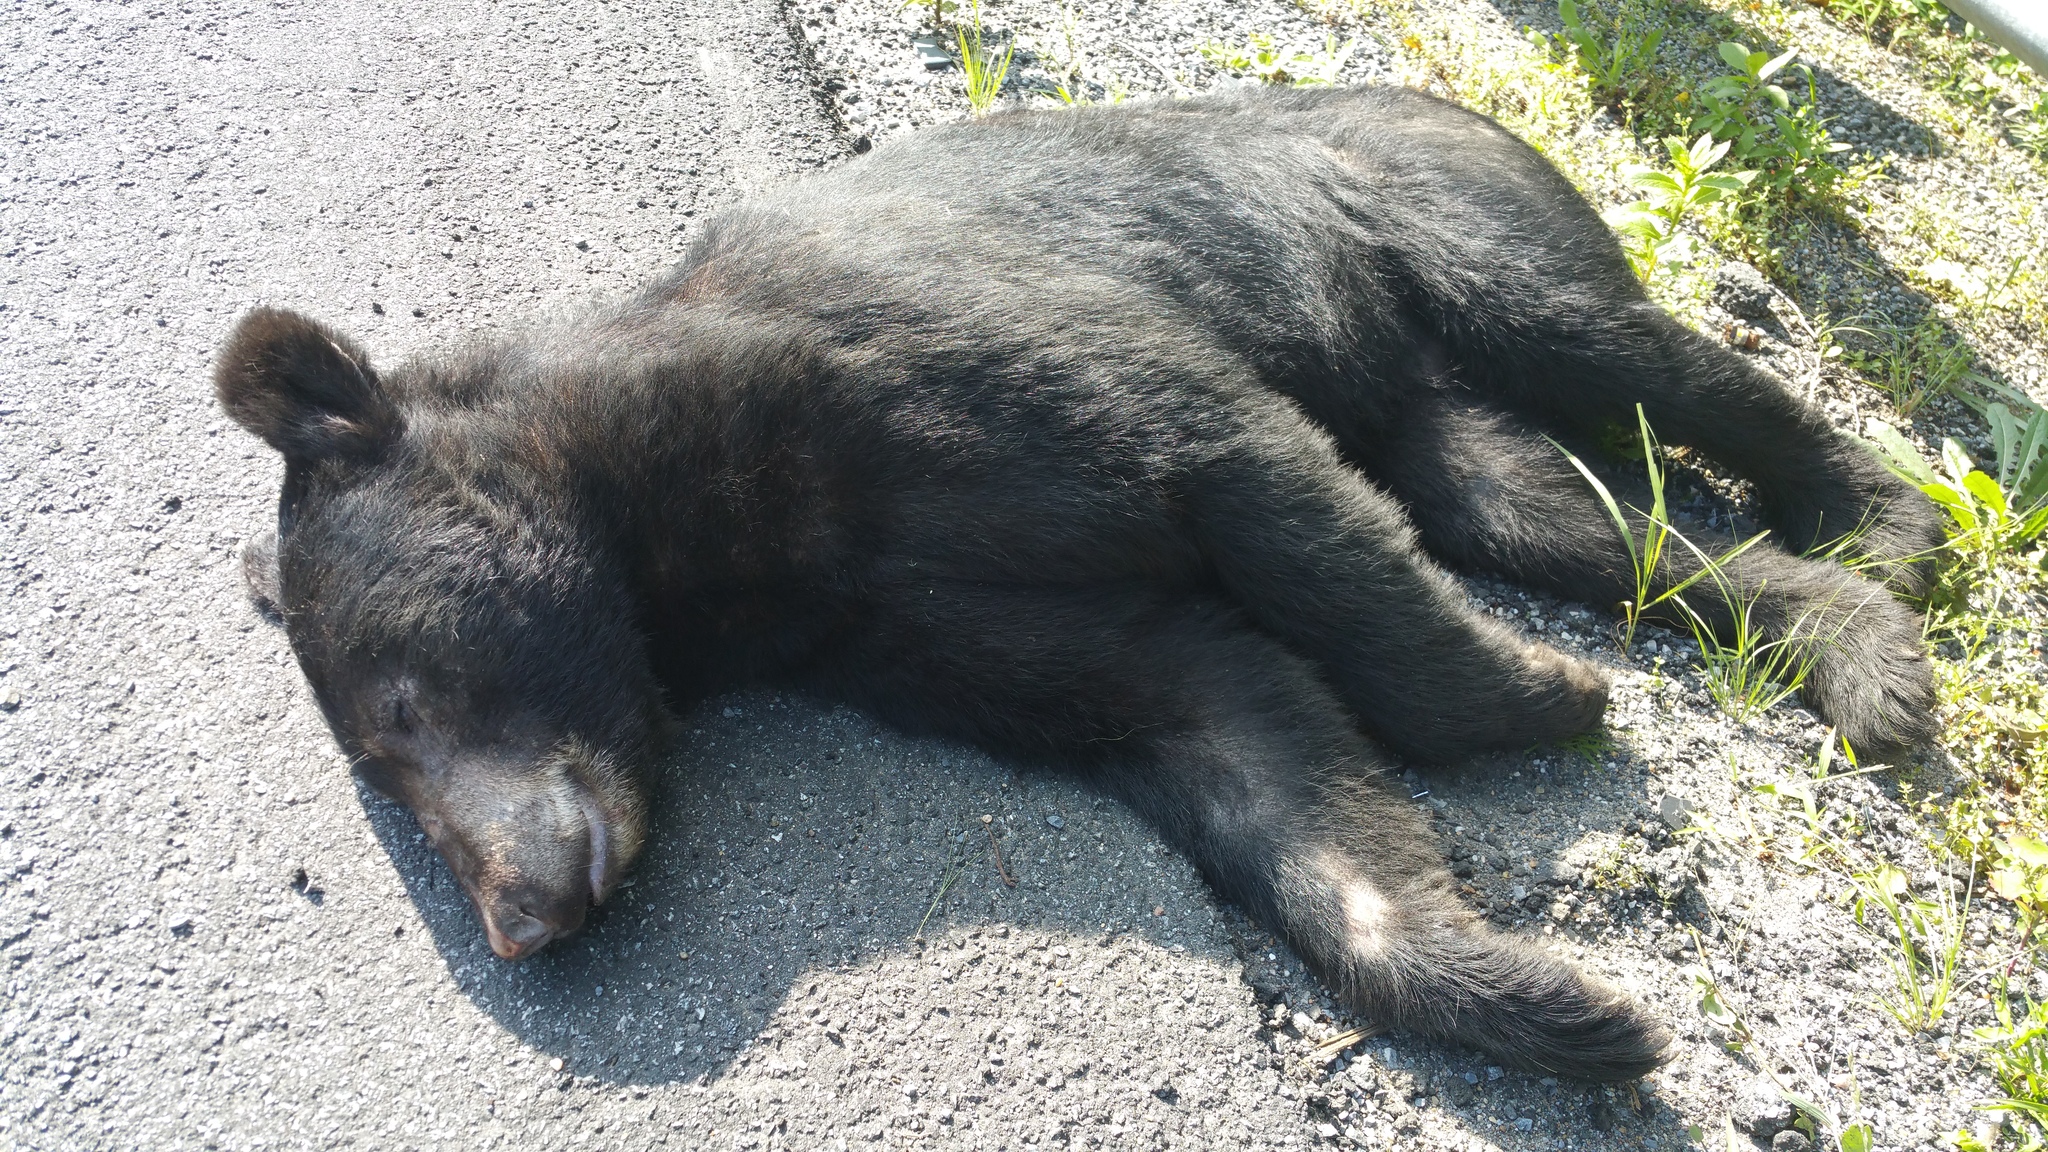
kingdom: Animalia
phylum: Chordata
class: Mammalia
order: Carnivora
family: Ursidae
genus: Ursus
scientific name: Ursus americanus
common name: American black bear
